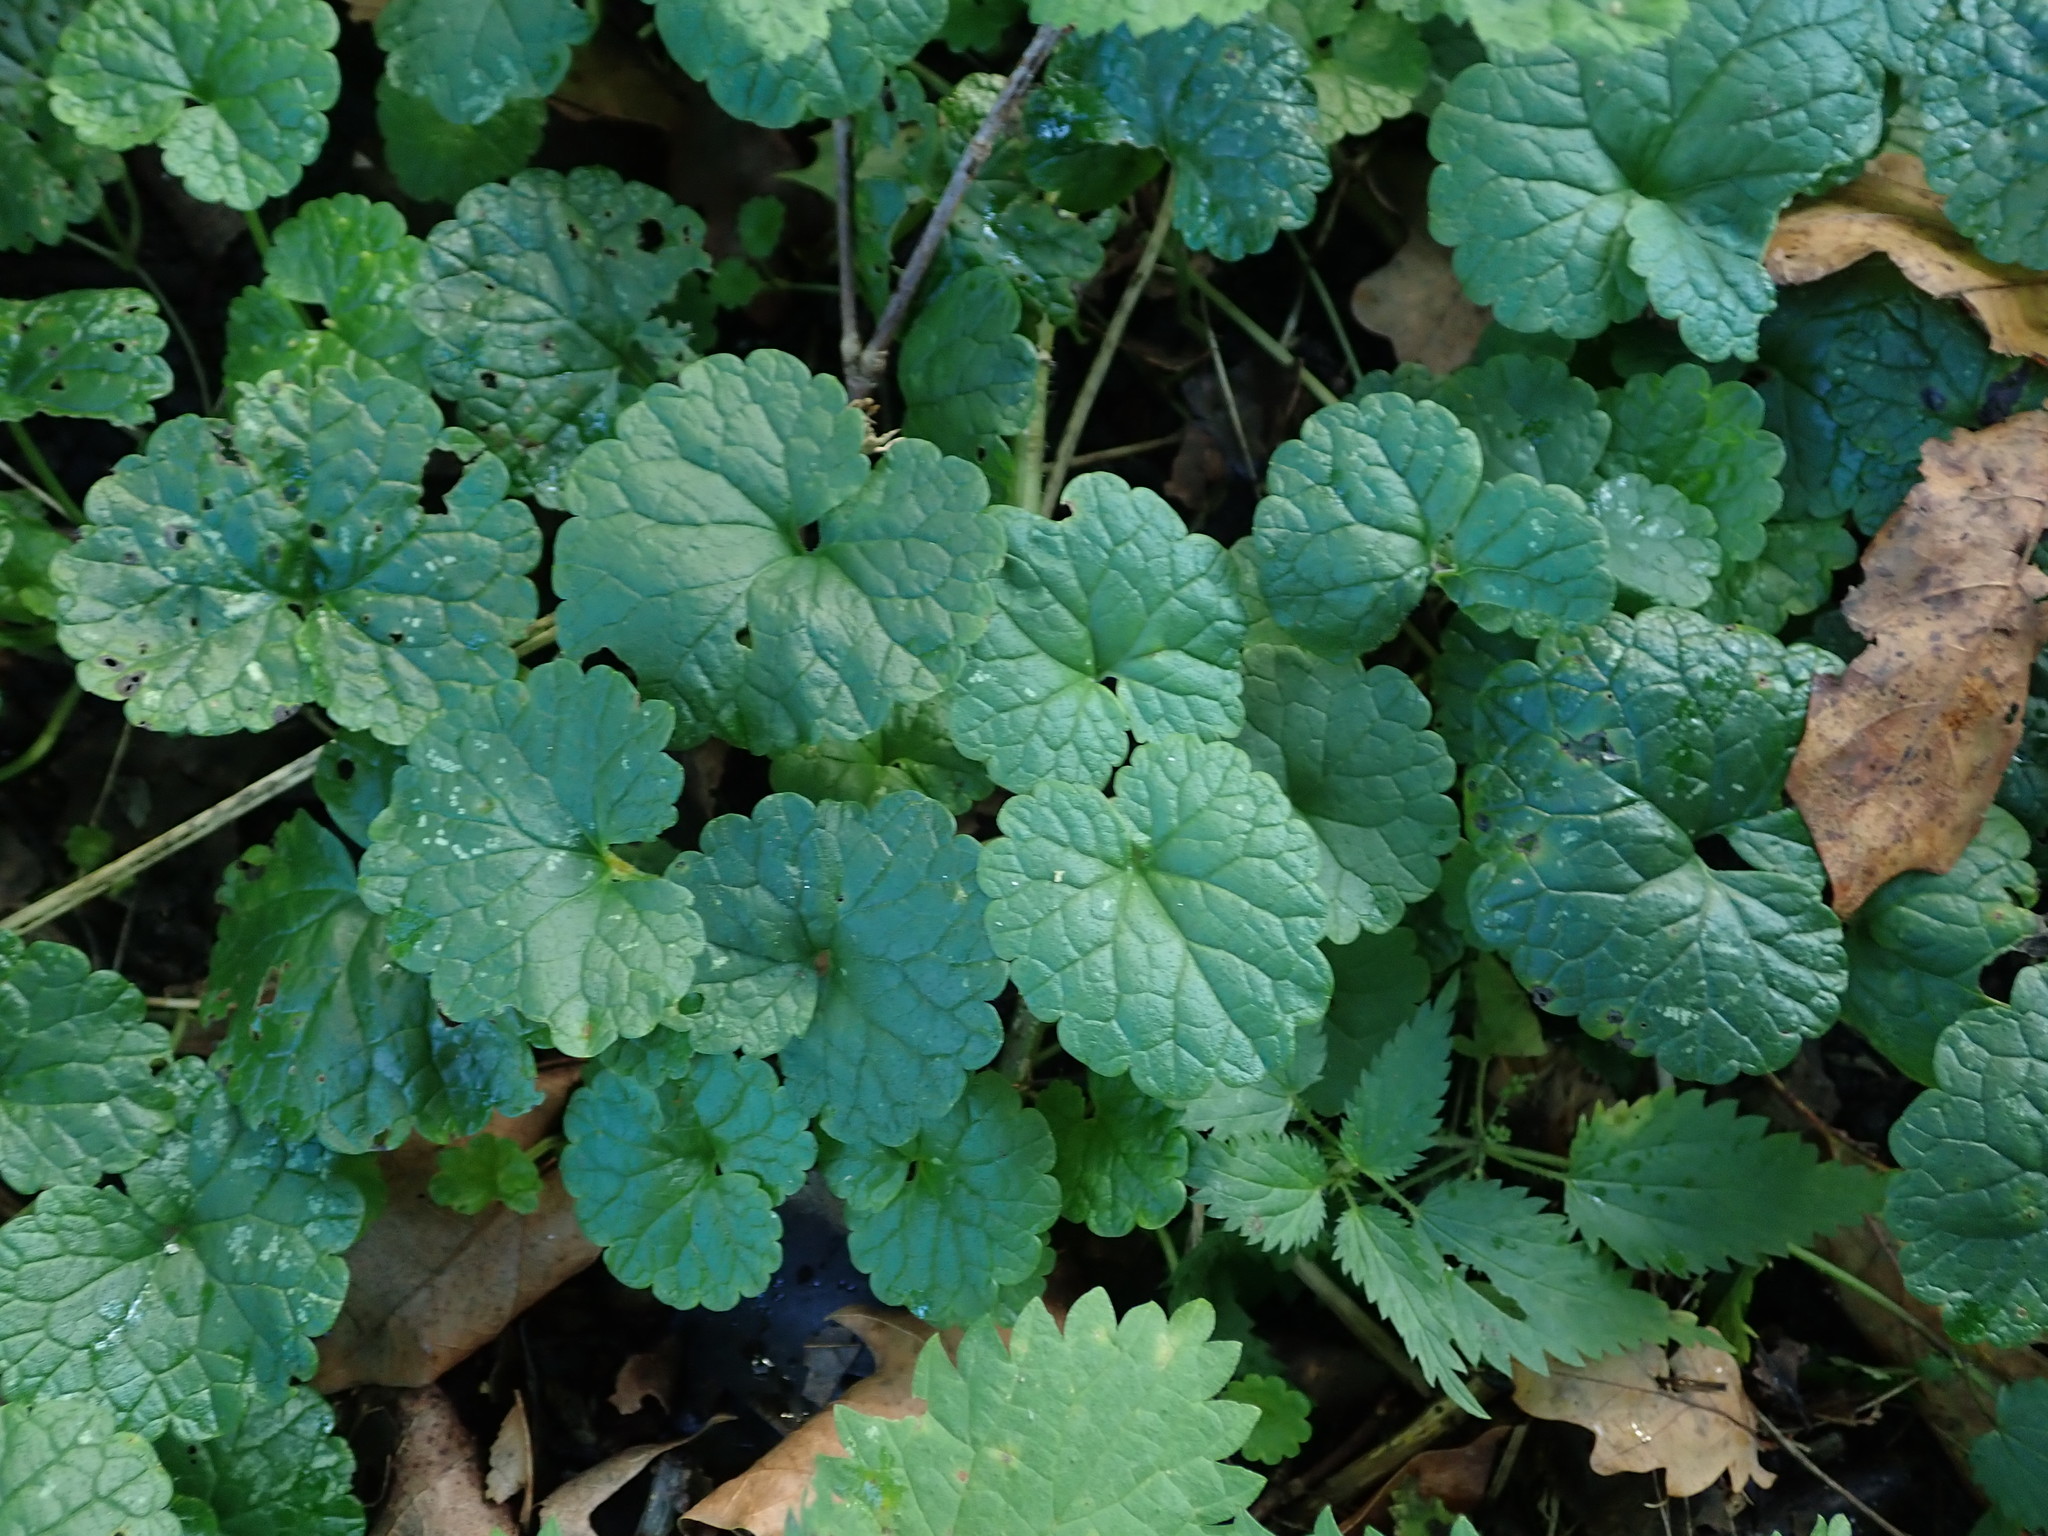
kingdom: Plantae
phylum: Tracheophyta
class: Magnoliopsida
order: Lamiales
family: Lamiaceae
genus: Glechoma
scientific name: Glechoma hederacea
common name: Ground ivy
